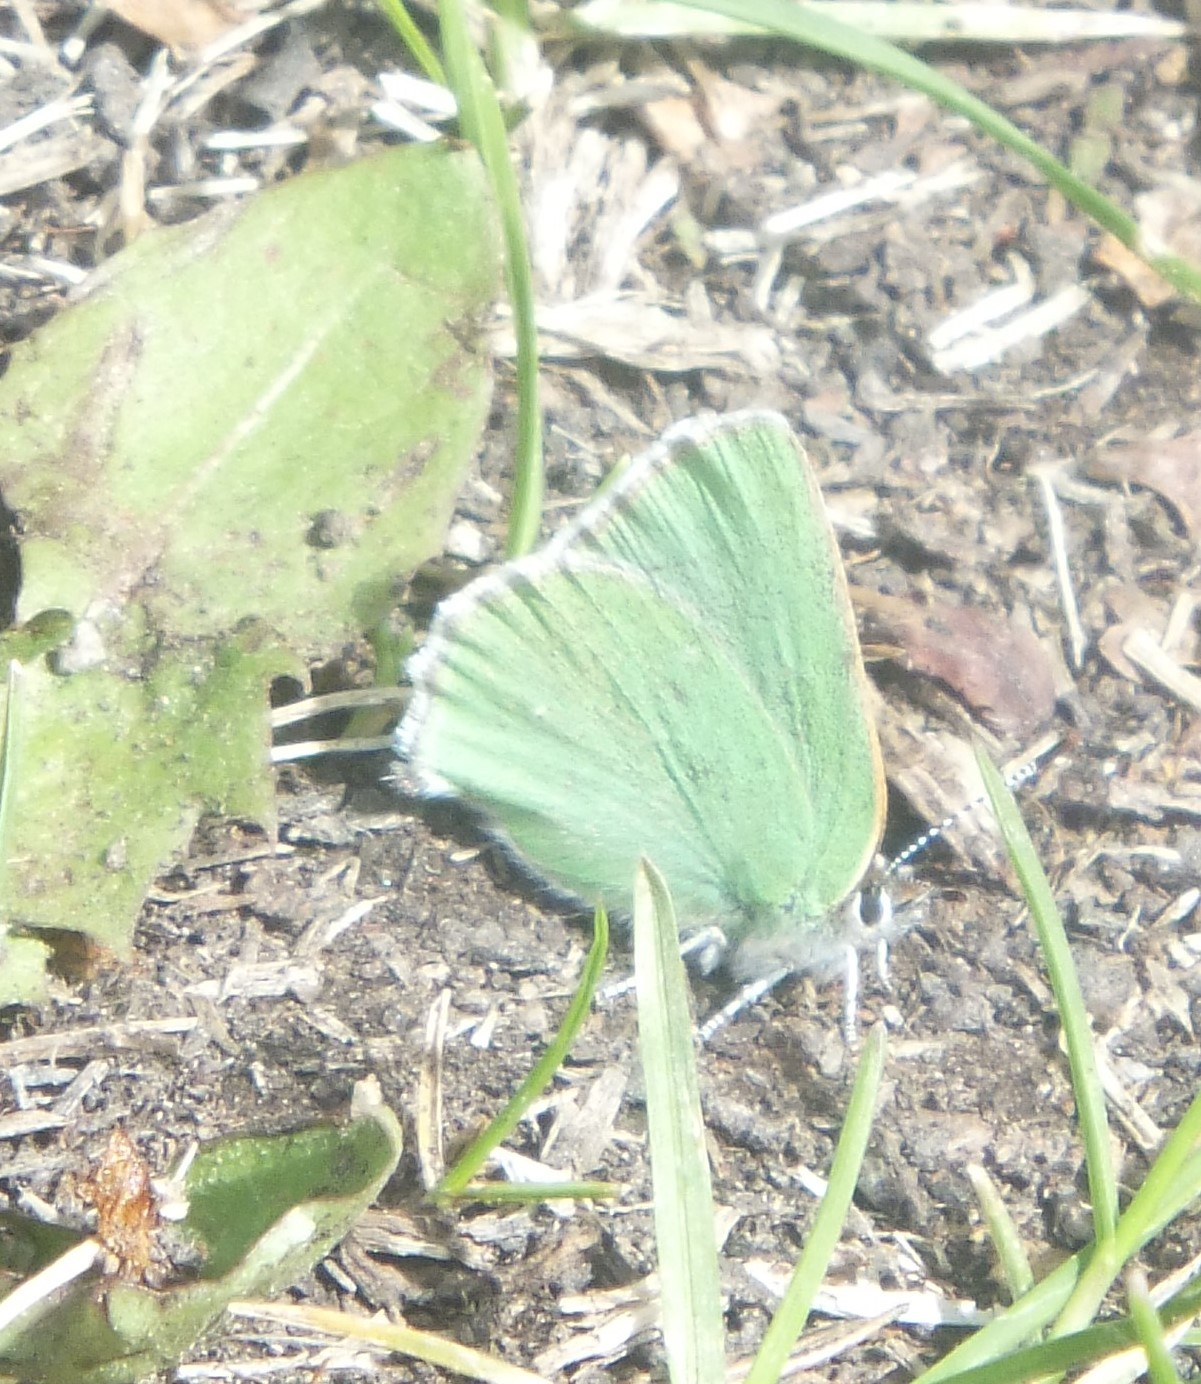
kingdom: Animalia
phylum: Arthropoda
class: Insecta
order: Lepidoptera
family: Lycaenidae
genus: Callophrys
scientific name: Callophrys affinis
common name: Western green hairstreak
